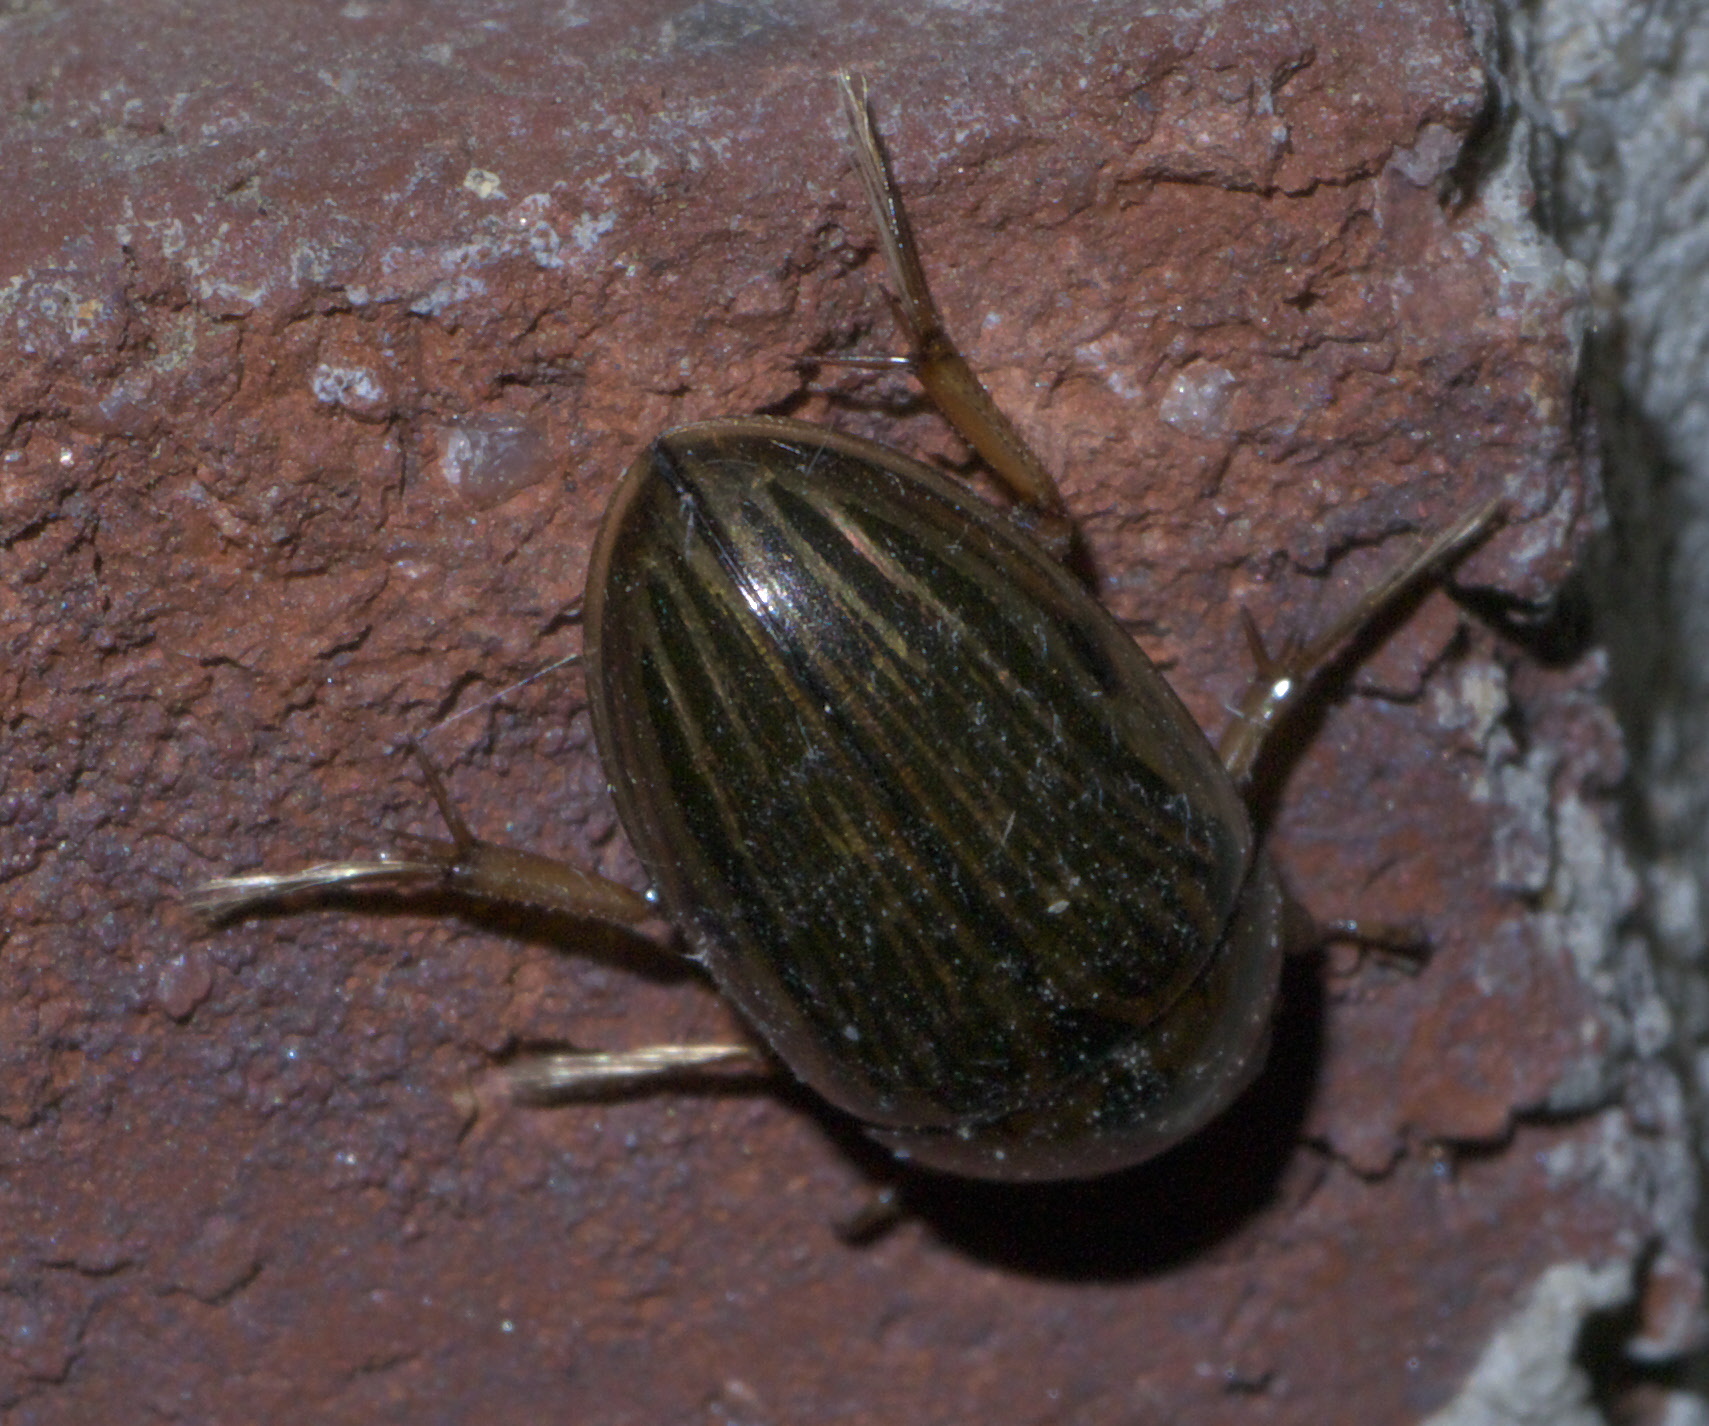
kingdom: Animalia
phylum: Arthropoda
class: Insecta
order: Coleoptera
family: Hydrophilidae
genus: Tropisternus
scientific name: Tropisternus collaris
